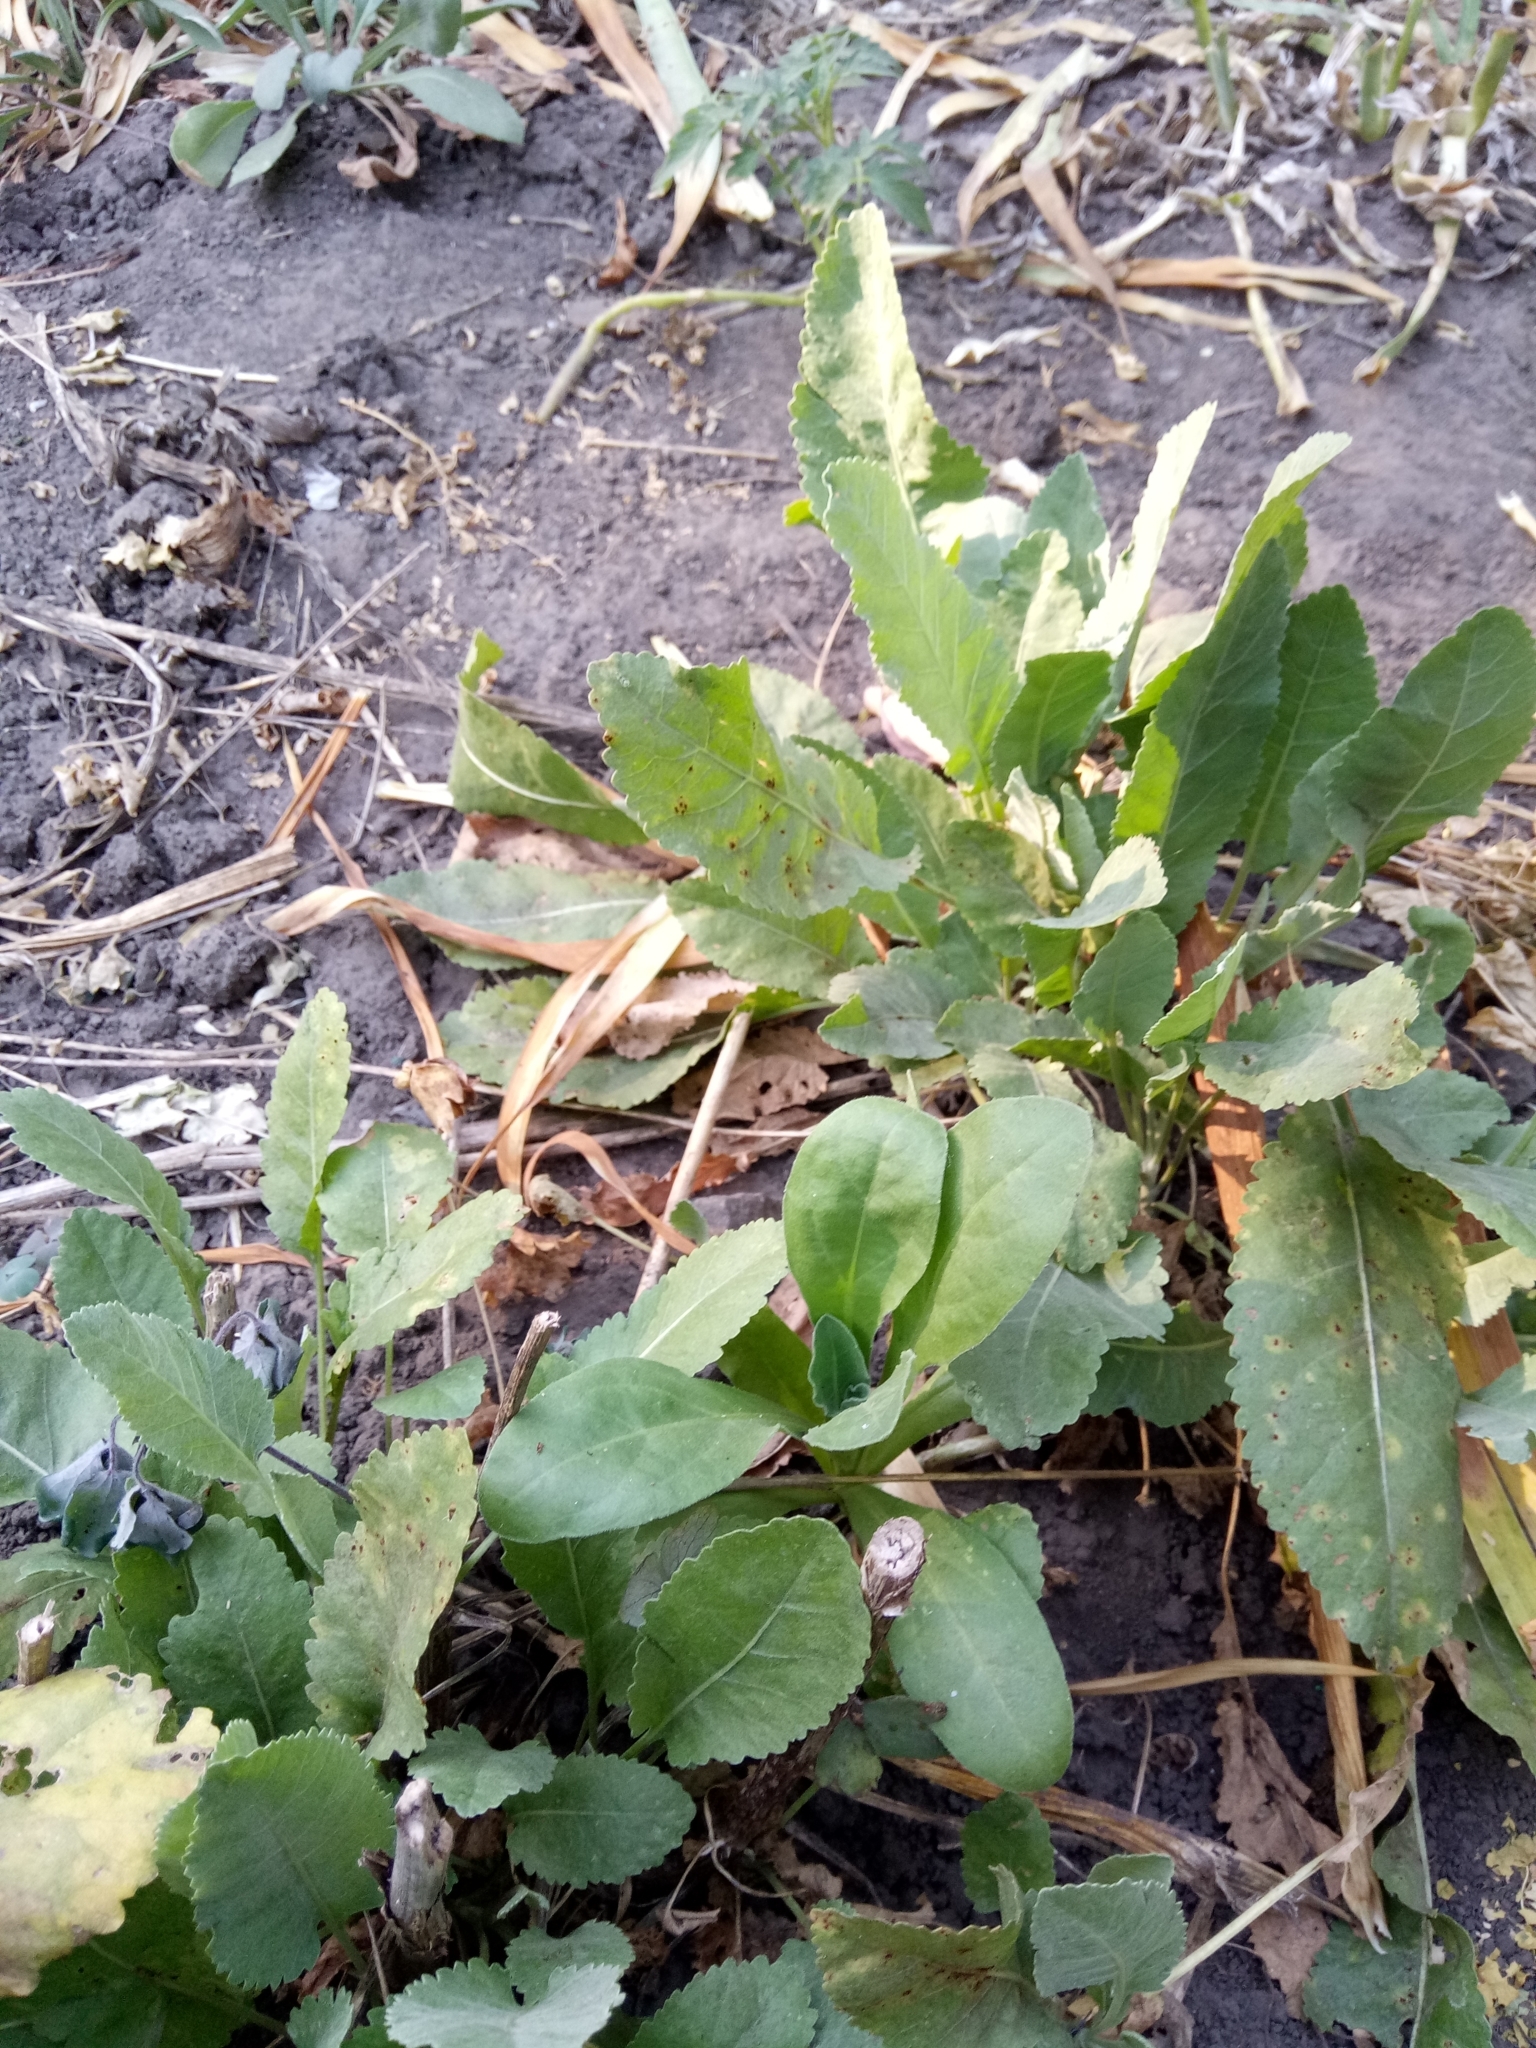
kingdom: Plantae
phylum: Tracheophyta
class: Magnoliopsida
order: Asterales
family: Asteraceae
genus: Tanacetum
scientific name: Tanacetum balsamita
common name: Costmary
